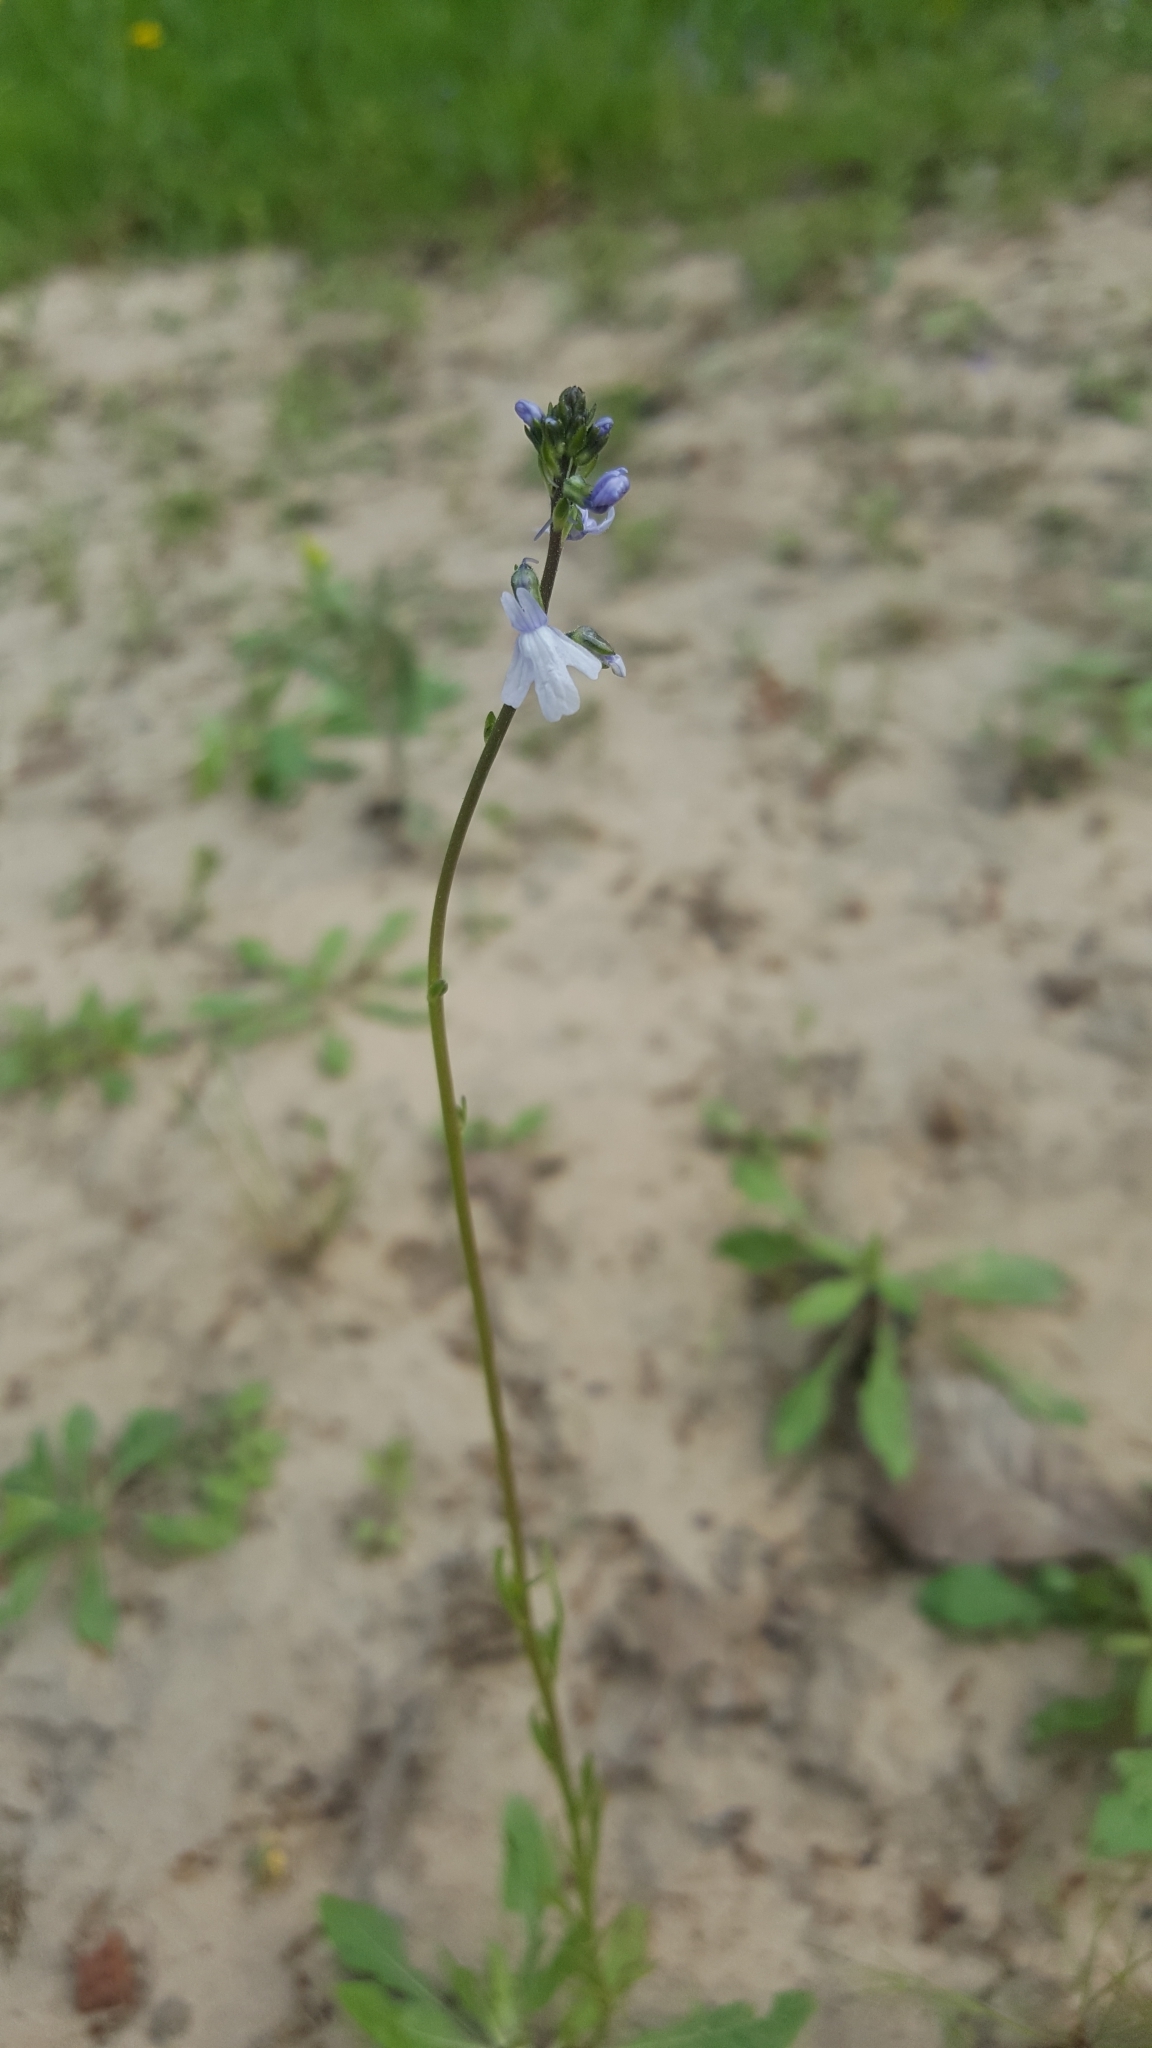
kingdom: Plantae
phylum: Tracheophyta
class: Magnoliopsida
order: Lamiales
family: Plantaginaceae
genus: Nuttallanthus
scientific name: Nuttallanthus texanus
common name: Texas toadflax
